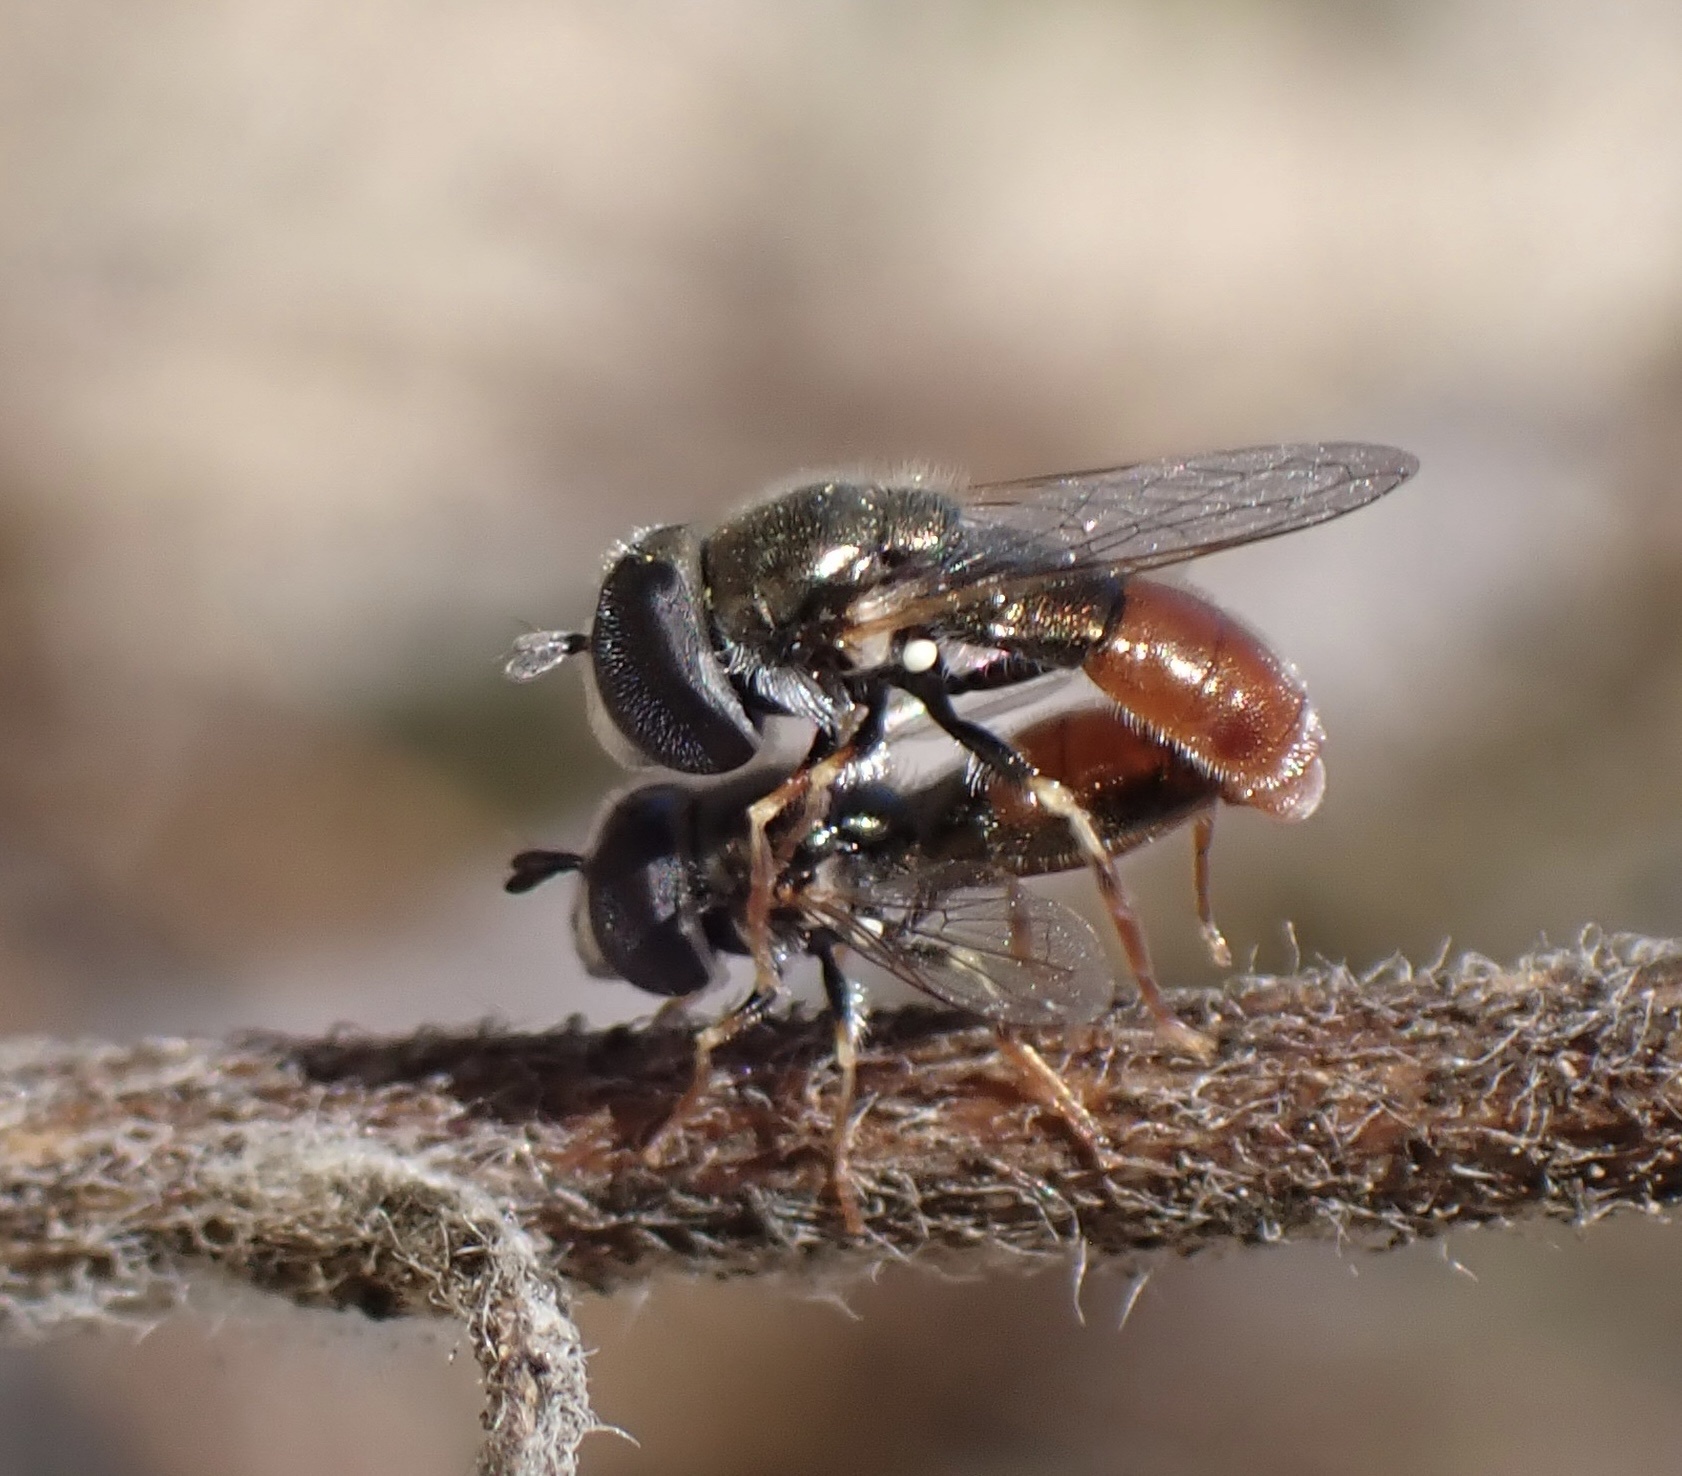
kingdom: Animalia
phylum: Arthropoda
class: Insecta
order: Diptera
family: Syrphidae
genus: Paragus
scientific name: Paragus haemorrhous
